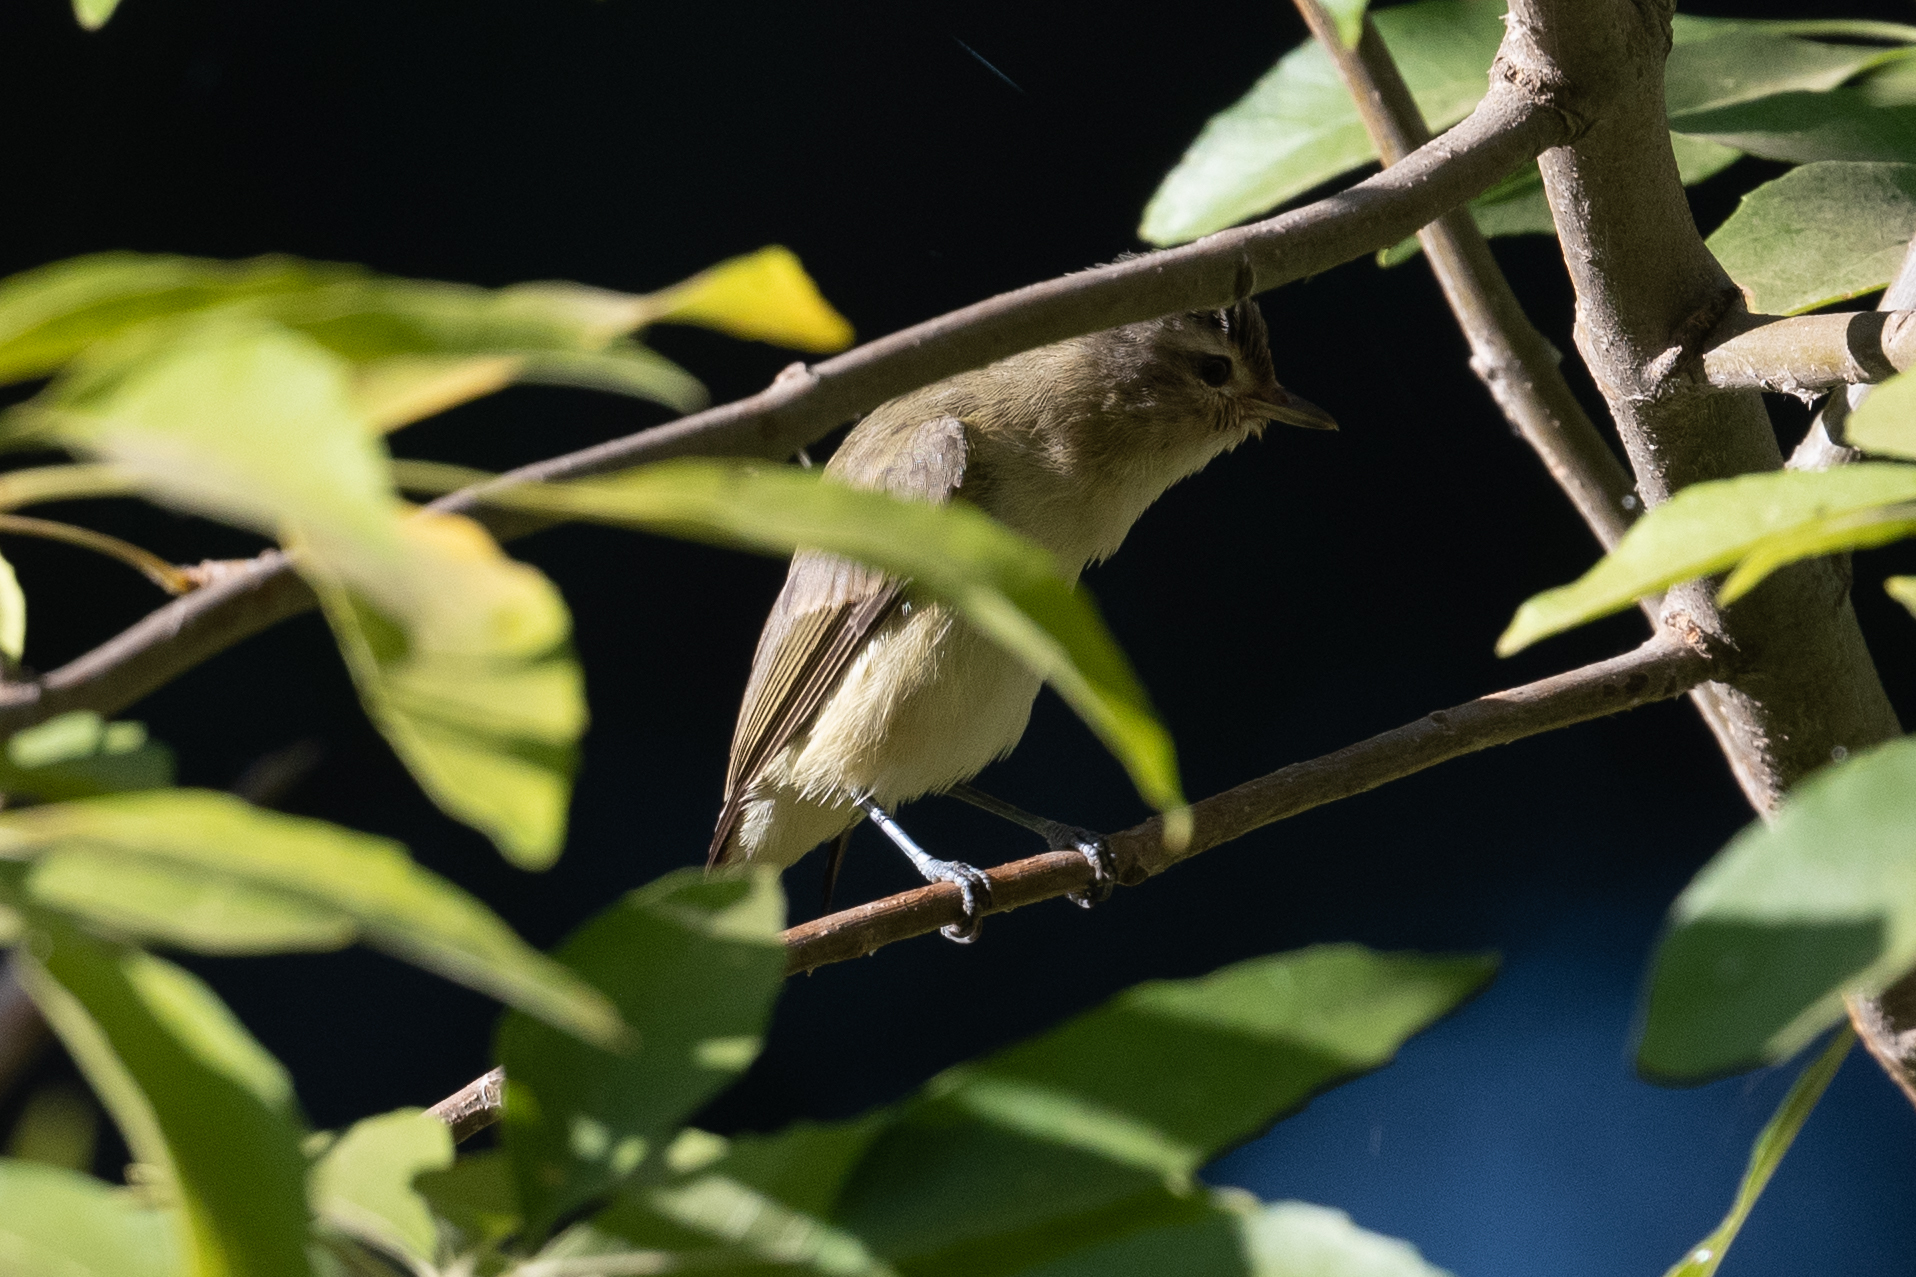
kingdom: Animalia
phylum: Chordata
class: Aves
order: Passeriformes
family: Vireonidae
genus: Vireo
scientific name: Vireo gilvus
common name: Warbling vireo
